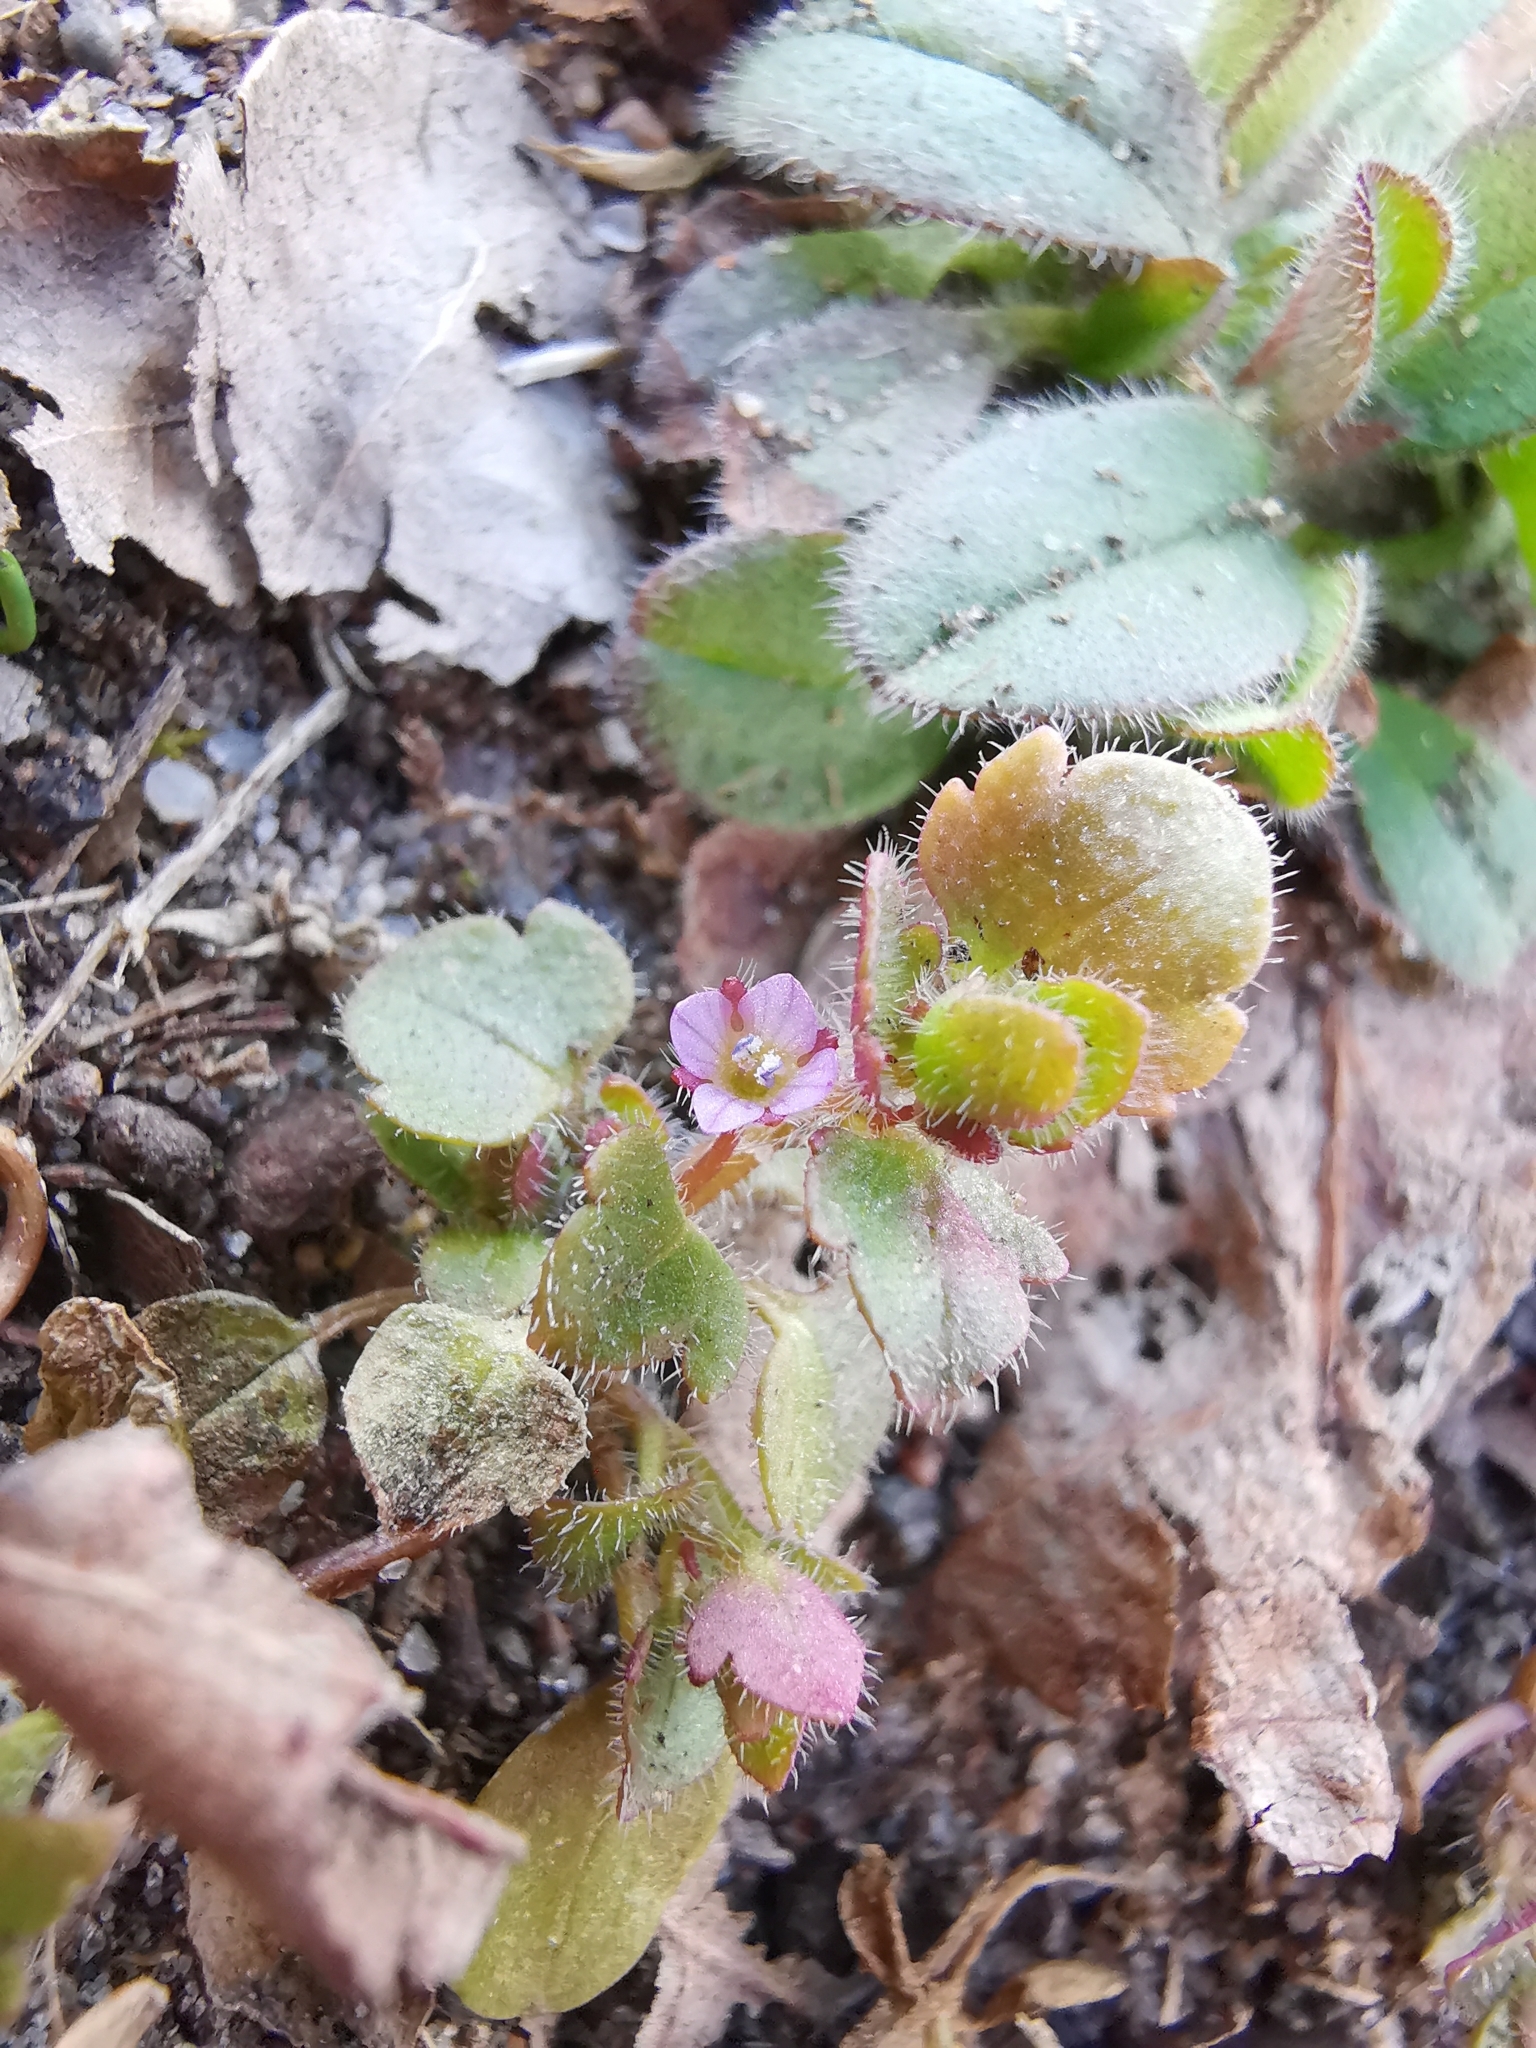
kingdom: Plantae
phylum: Tracheophyta
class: Magnoliopsida
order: Lamiales
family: Plantaginaceae
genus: Veronica
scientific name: Veronica sublobata
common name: False ivy-leaved speedwell
